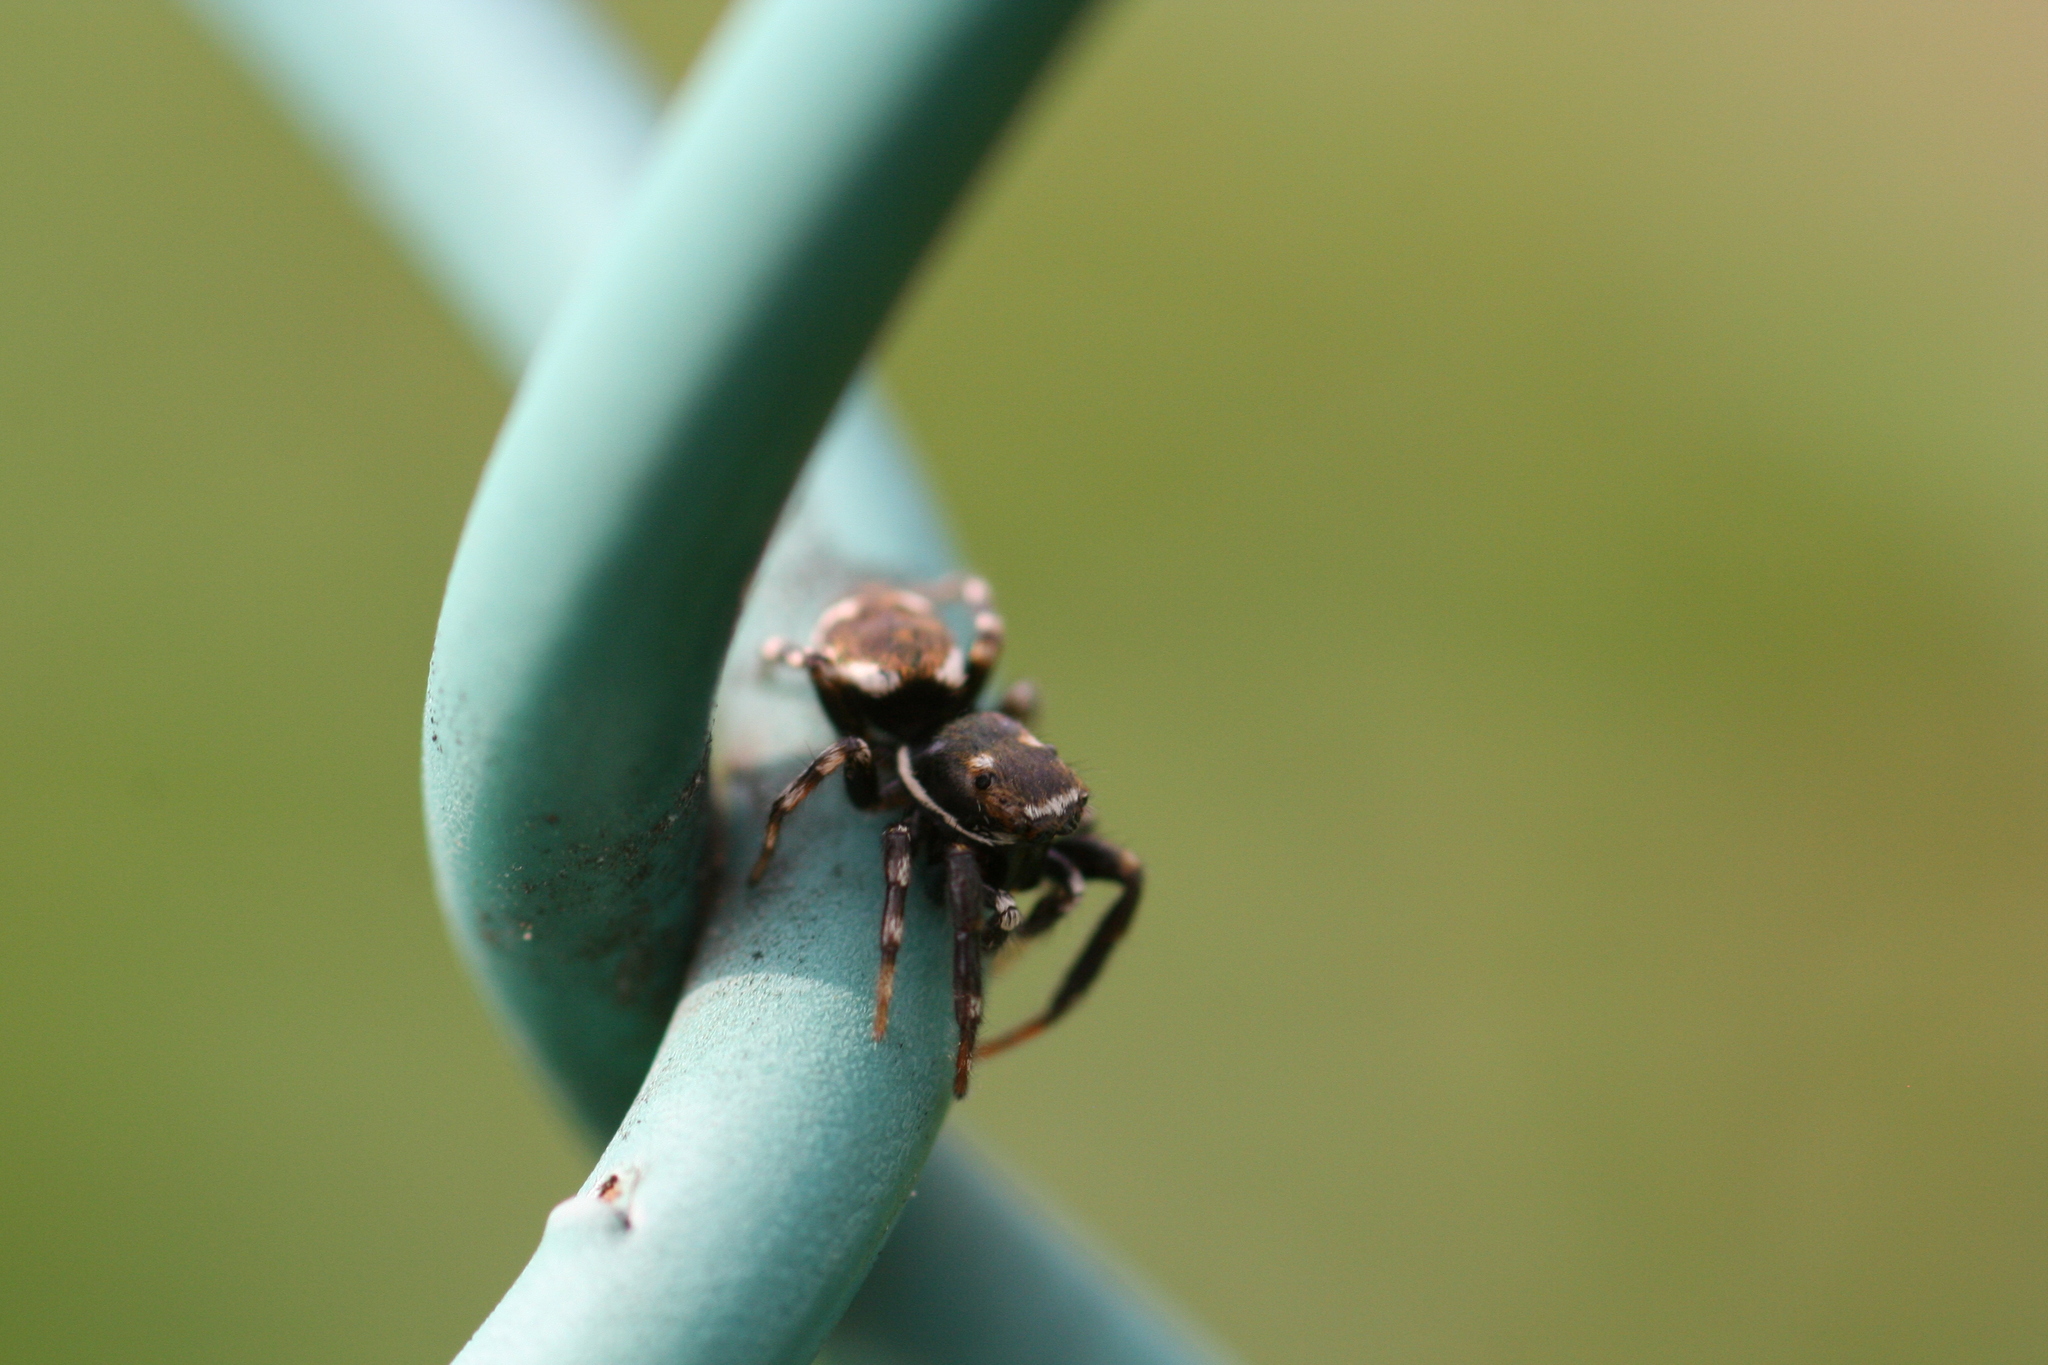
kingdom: Animalia
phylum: Arthropoda
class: Arachnida
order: Araneae
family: Salticidae
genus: Orienticius
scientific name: Orienticius vulpes
